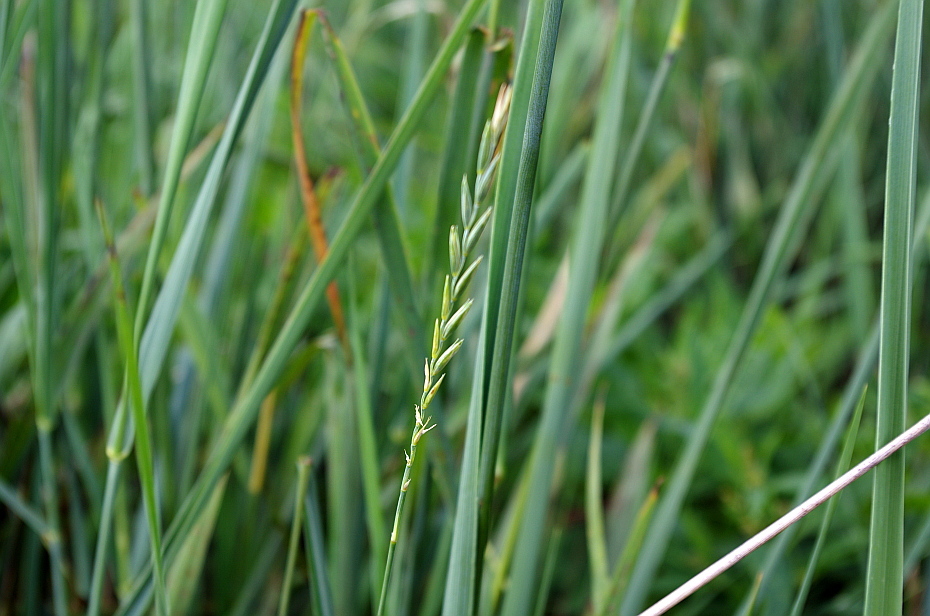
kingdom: Plantae
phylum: Tracheophyta
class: Liliopsida
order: Poales
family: Poaceae
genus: Elymus
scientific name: Elymus repens
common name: Quackgrass
